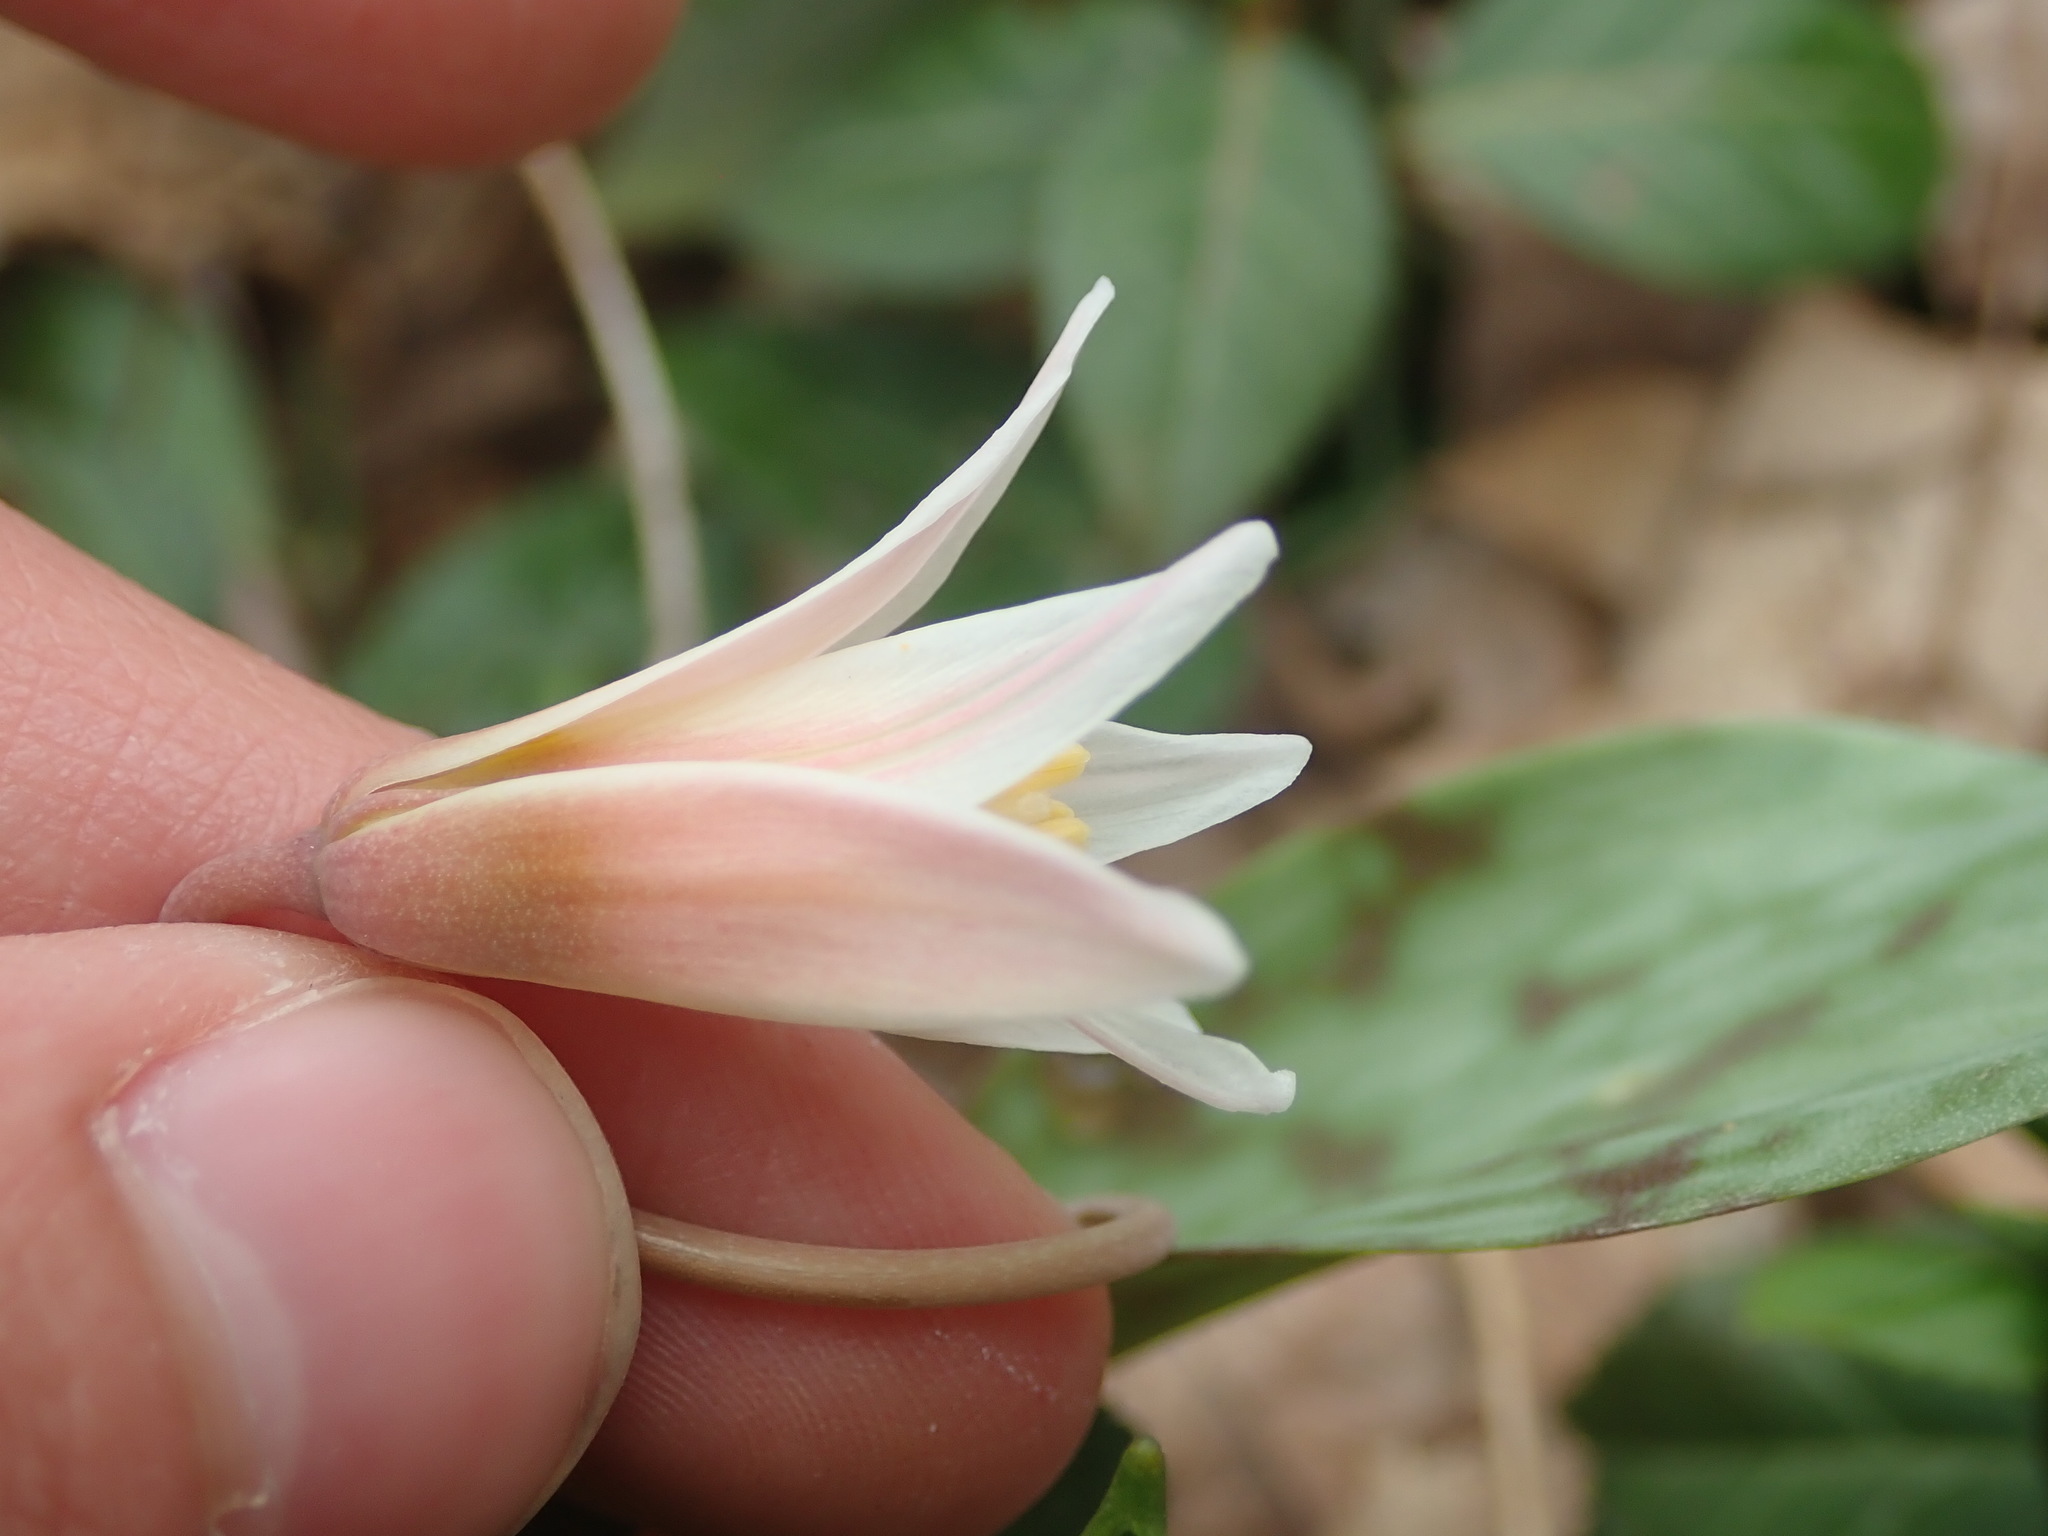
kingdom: Plantae
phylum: Tracheophyta
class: Liliopsida
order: Liliales
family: Liliaceae
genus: Erythronium
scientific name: Erythronium albidum
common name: White trout-lily
